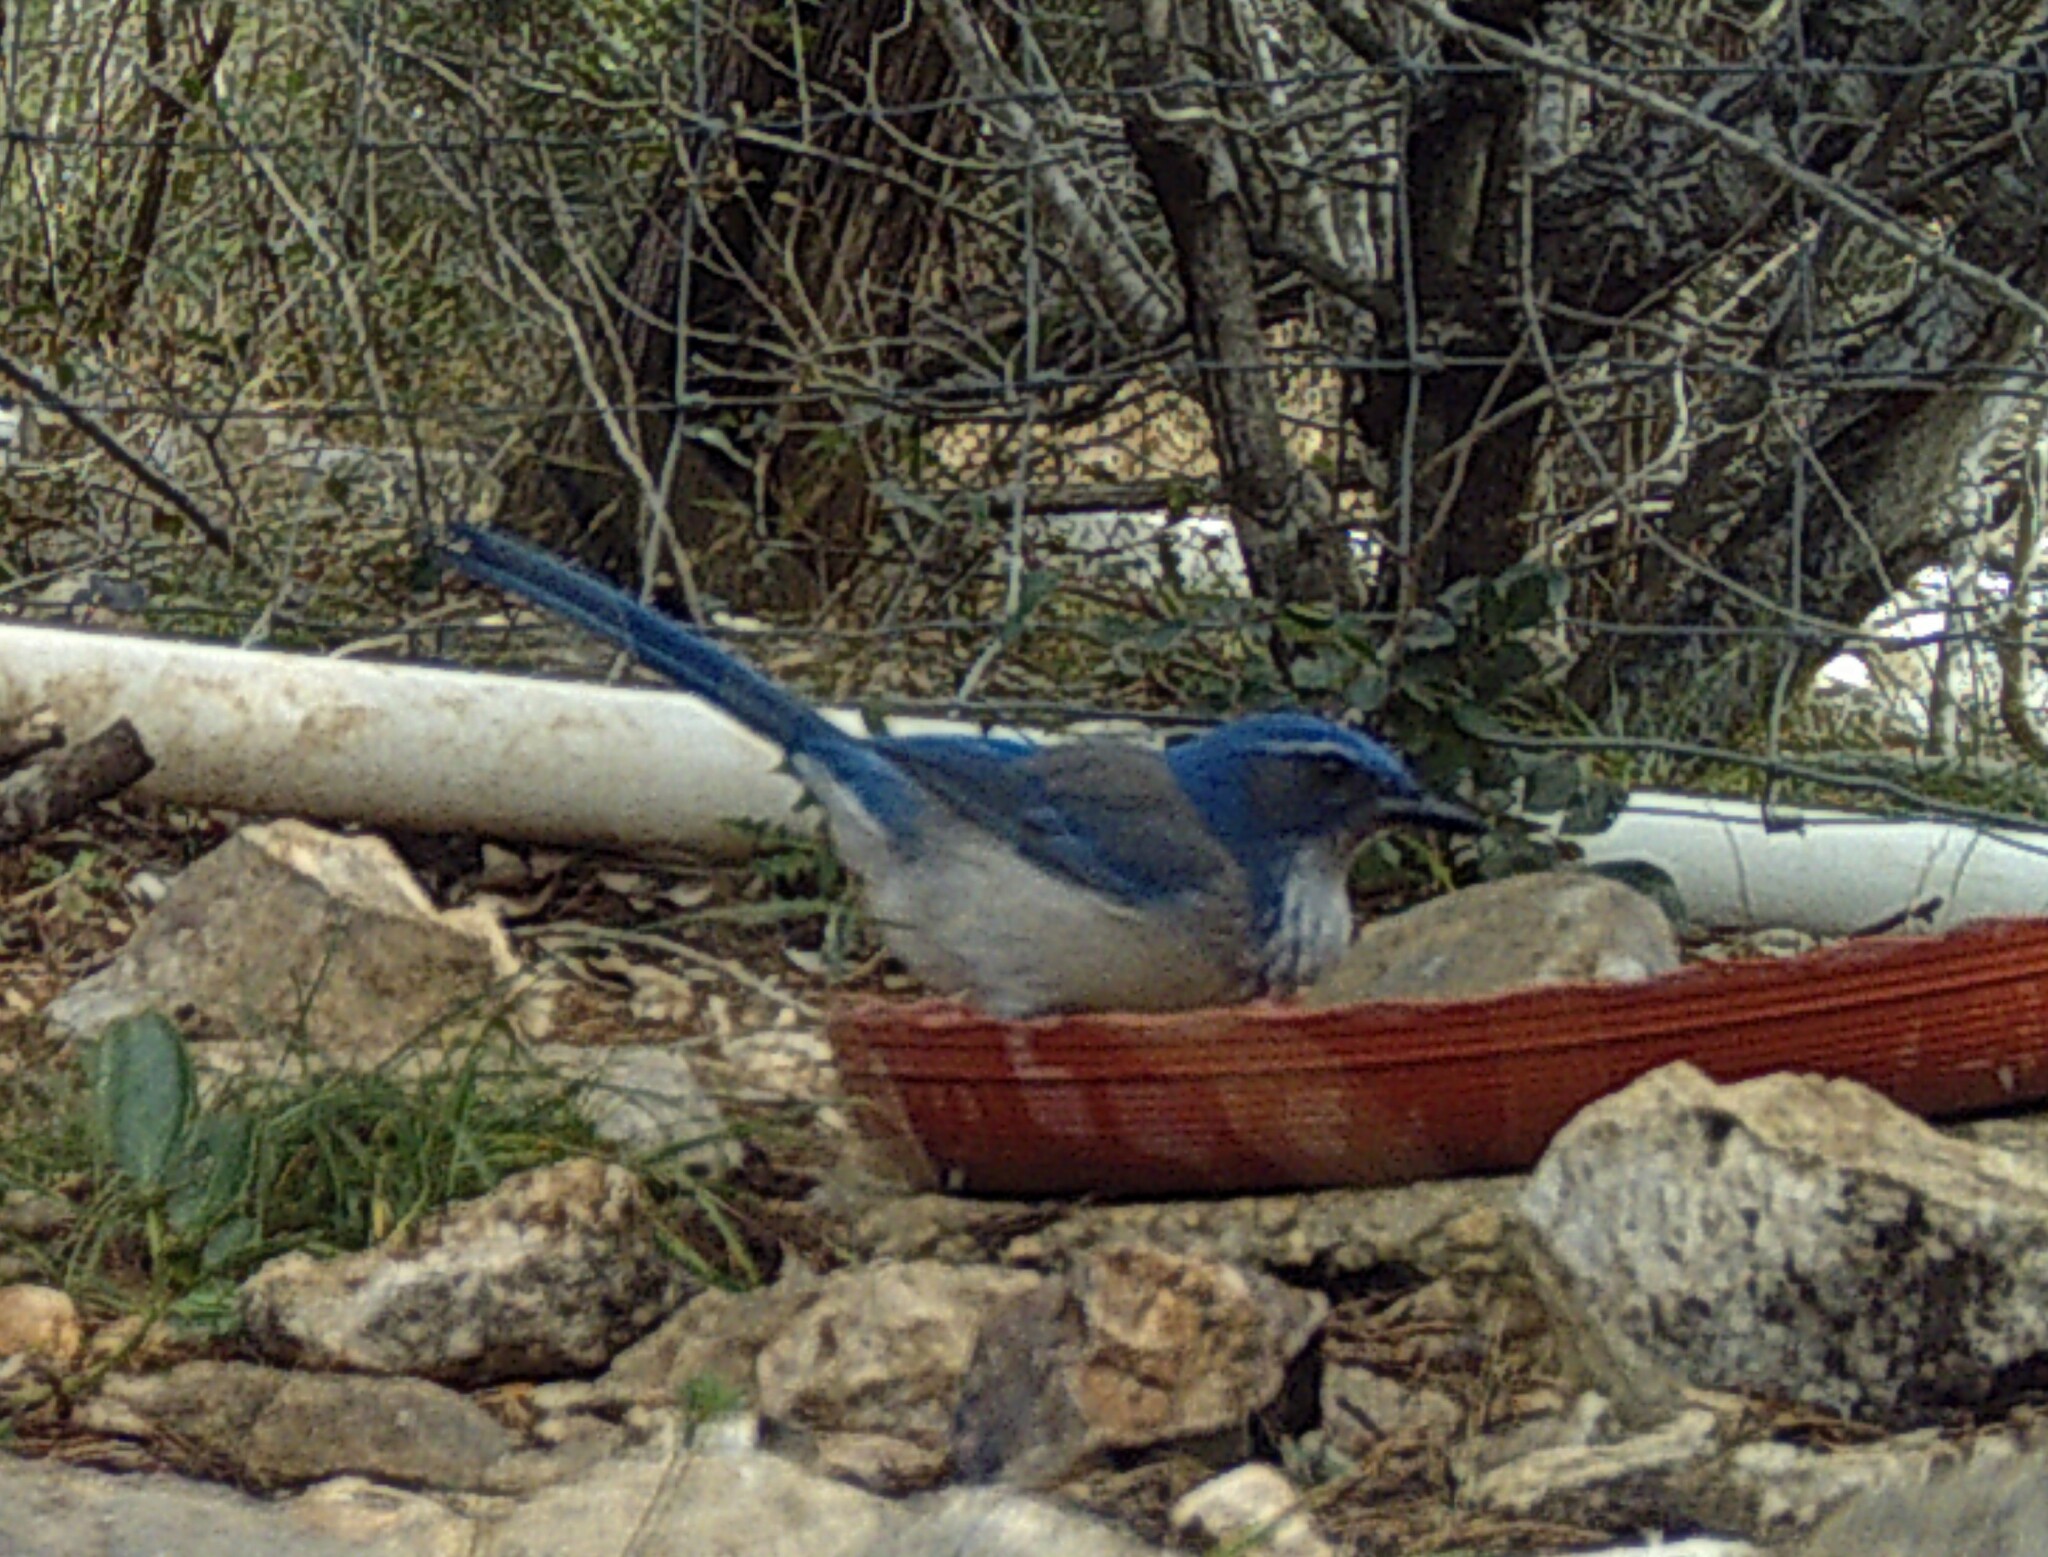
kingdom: Animalia
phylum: Chordata
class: Aves
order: Passeriformes
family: Corvidae
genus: Aphelocoma
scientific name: Aphelocoma woodhouseii
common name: Woodhouse's scrub-jay
